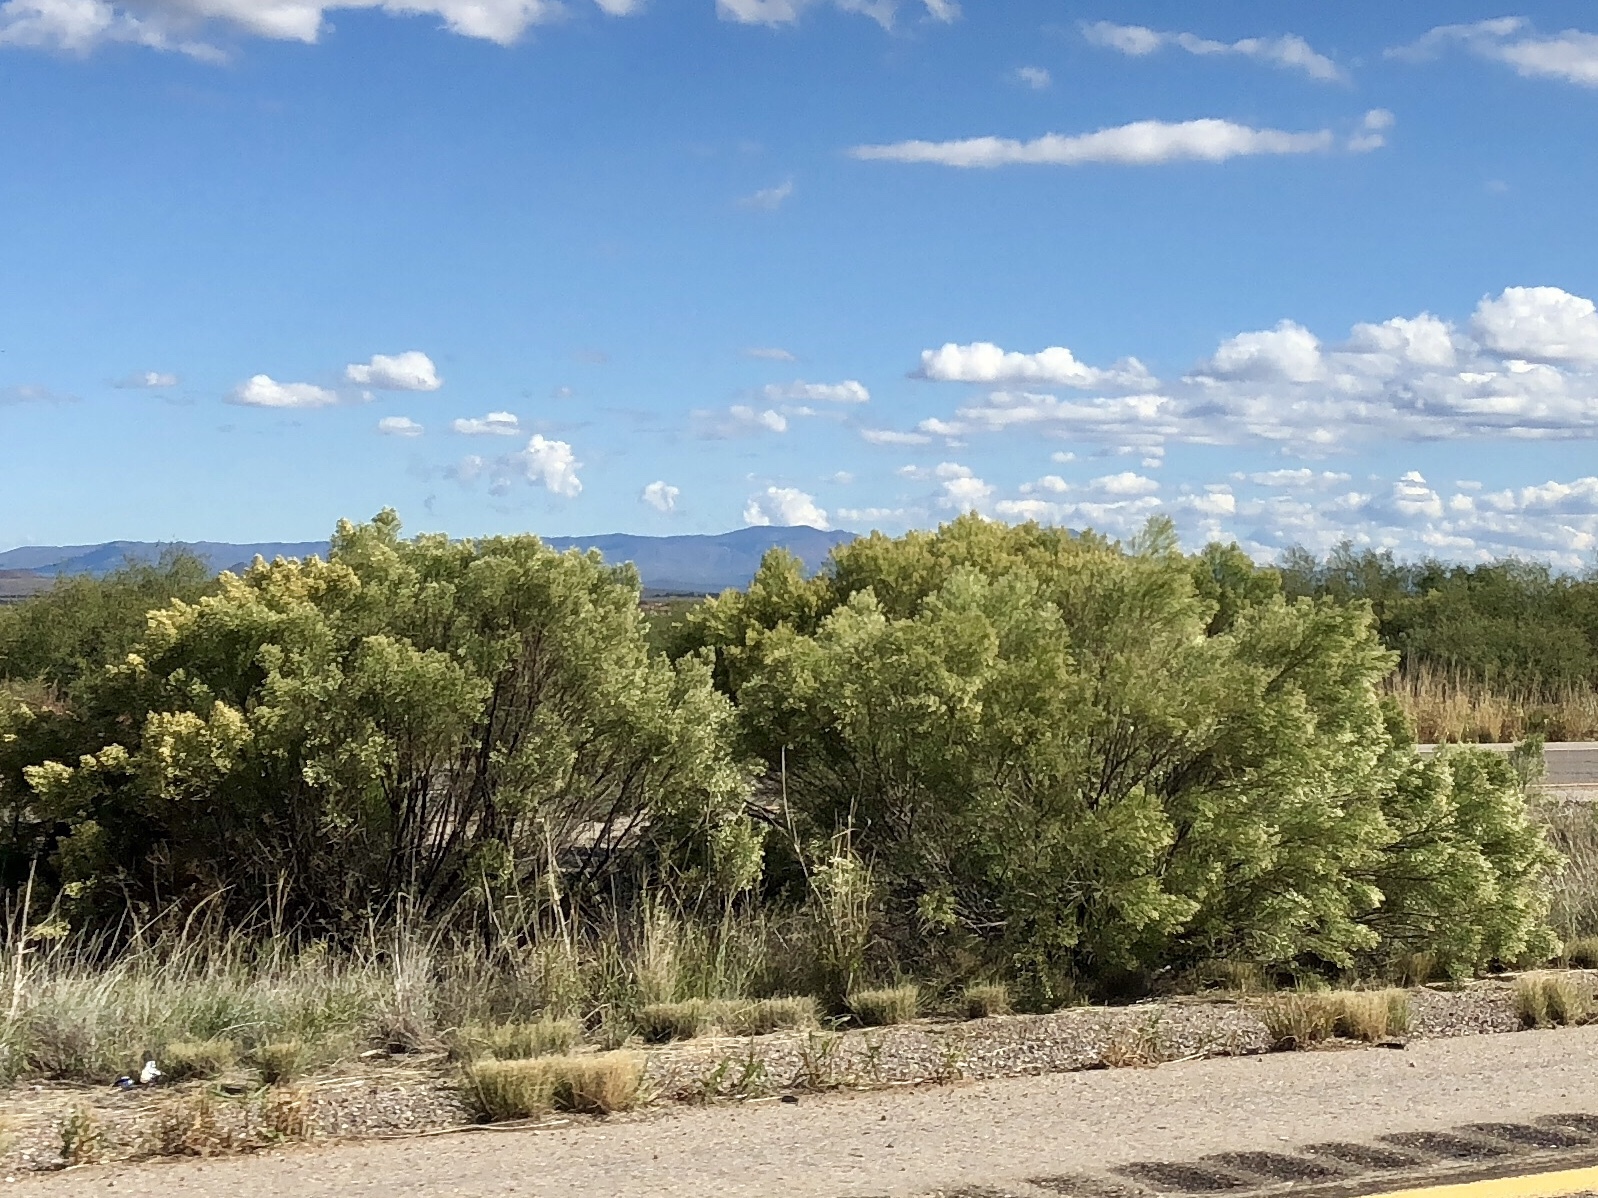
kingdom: Plantae
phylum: Tracheophyta
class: Magnoliopsida
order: Asterales
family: Asteraceae
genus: Baccharis
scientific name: Baccharis sarothroides
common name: Desert-broom
